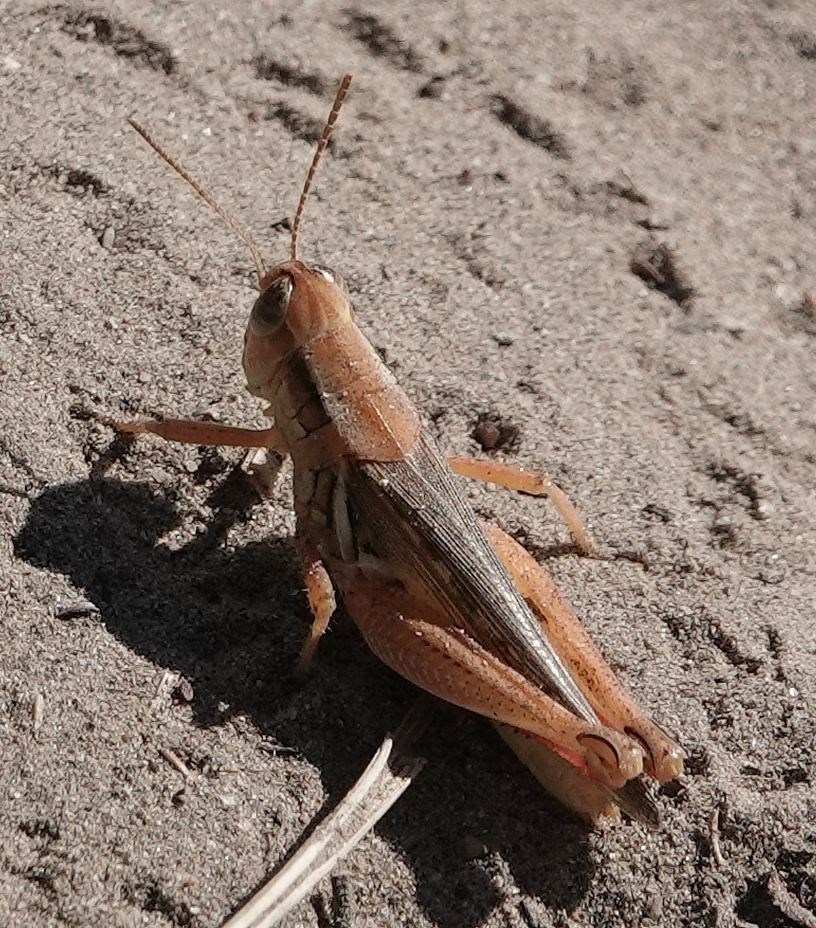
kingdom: Animalia
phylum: Arthropoda
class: Insecta
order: Orthoptera
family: Acrididae
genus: Melanoplus
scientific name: Melanoplus angustipennis
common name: Narrow-winged locust
